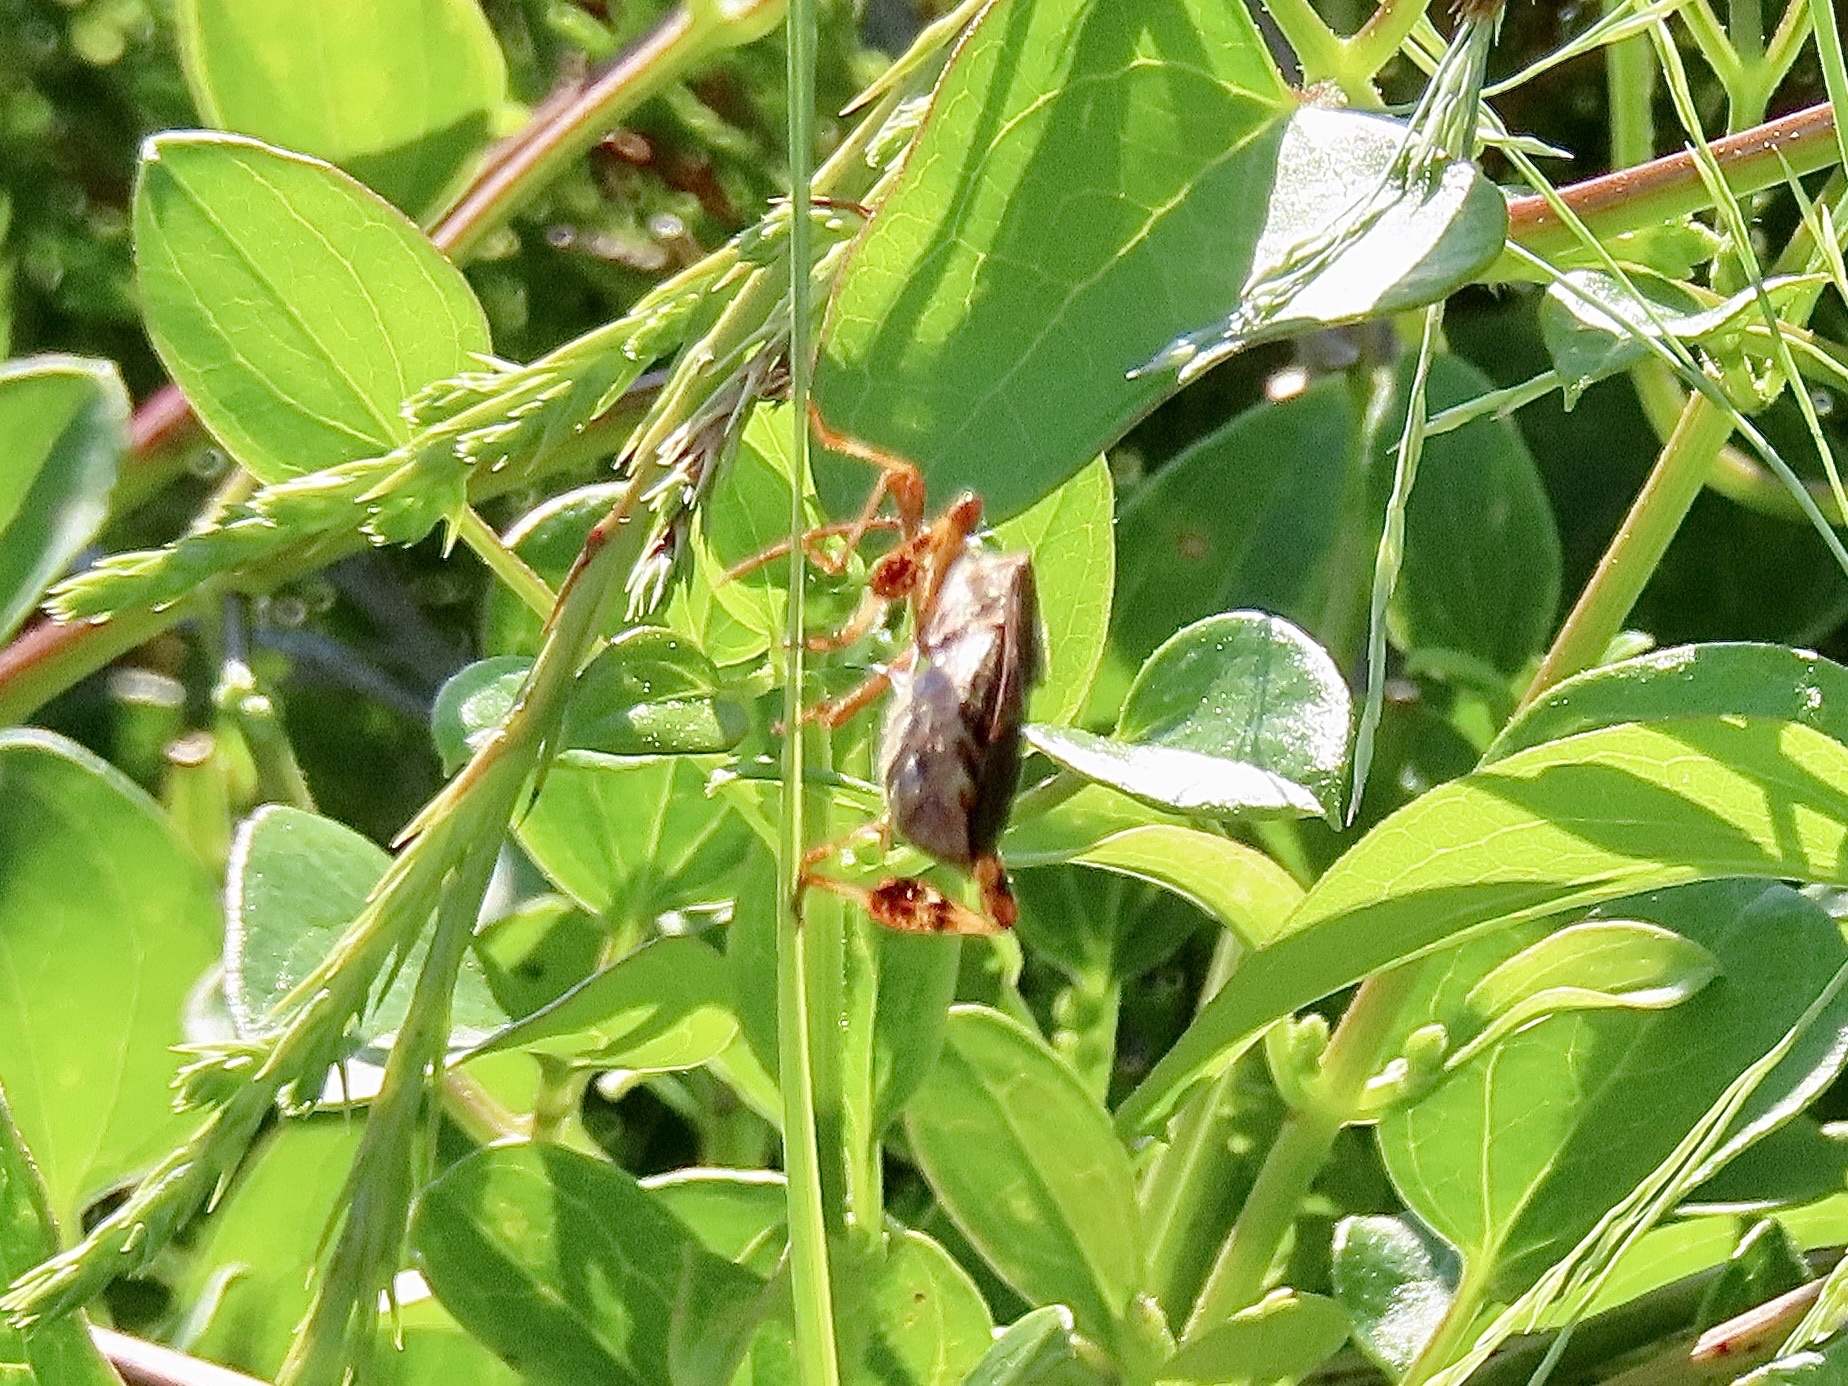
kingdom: Animalia
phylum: Arthropoda
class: Insecta
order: Hemiptera
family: Coreidae
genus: Leptoglossus
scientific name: Leptoglossus occidentalis
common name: Western conifer-seed bug
